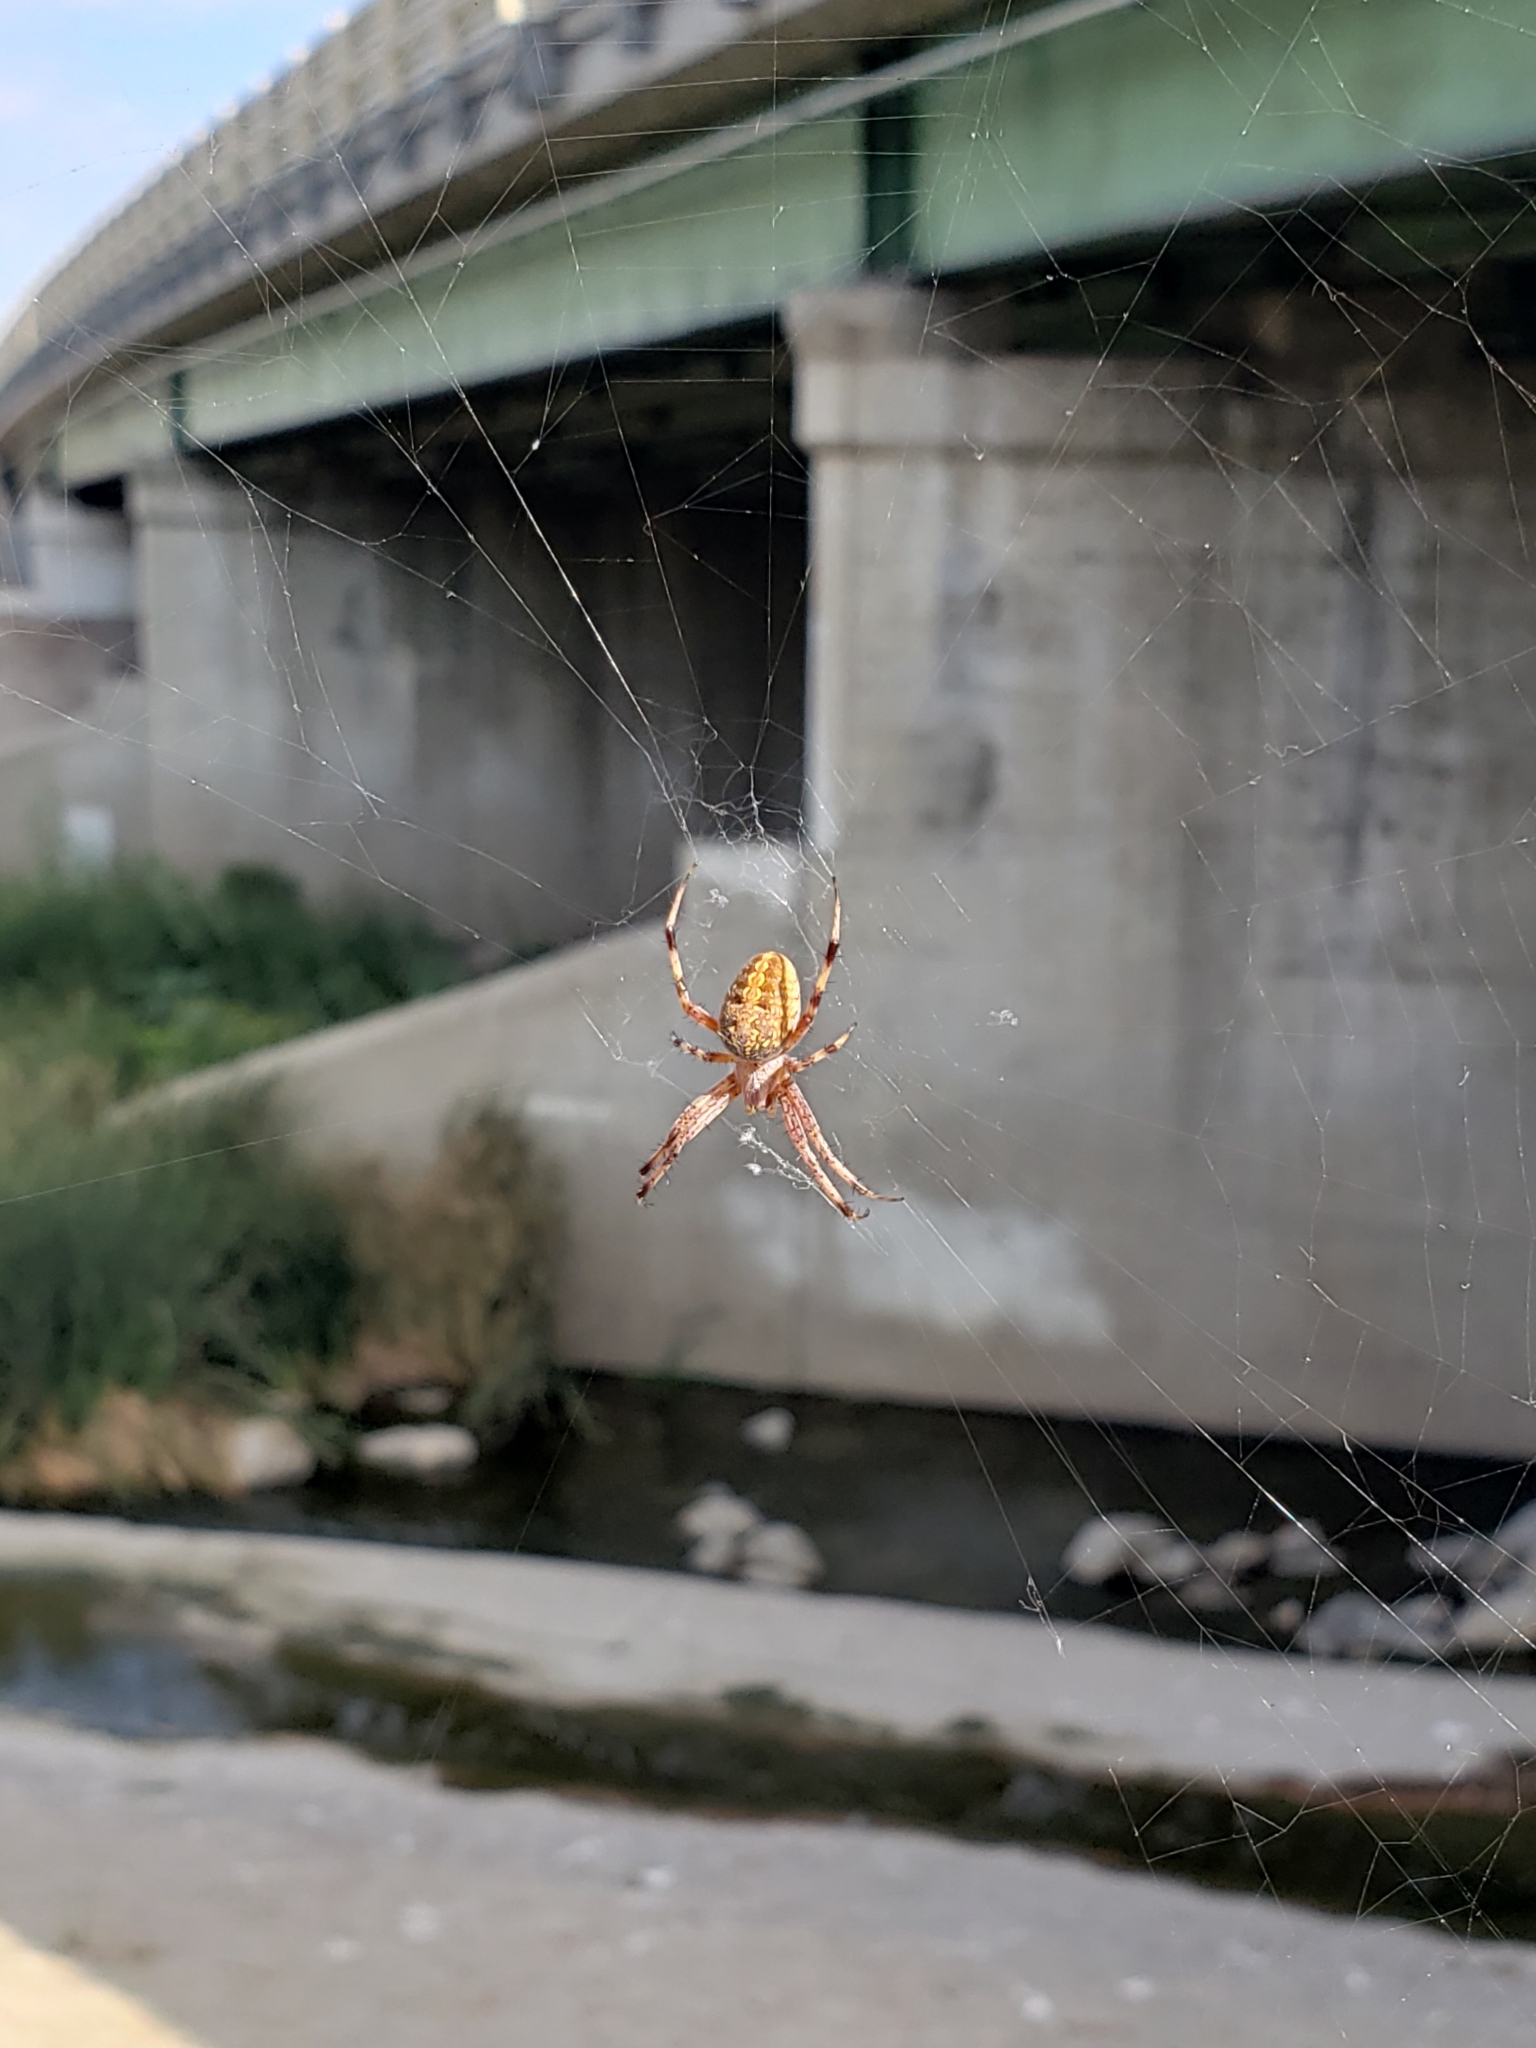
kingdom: Animalia
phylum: Arthropoda
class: Arachnida
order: Araneae
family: Araneidae
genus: Neoscona
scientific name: Neoscona oaxacensis
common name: Orb weavers
